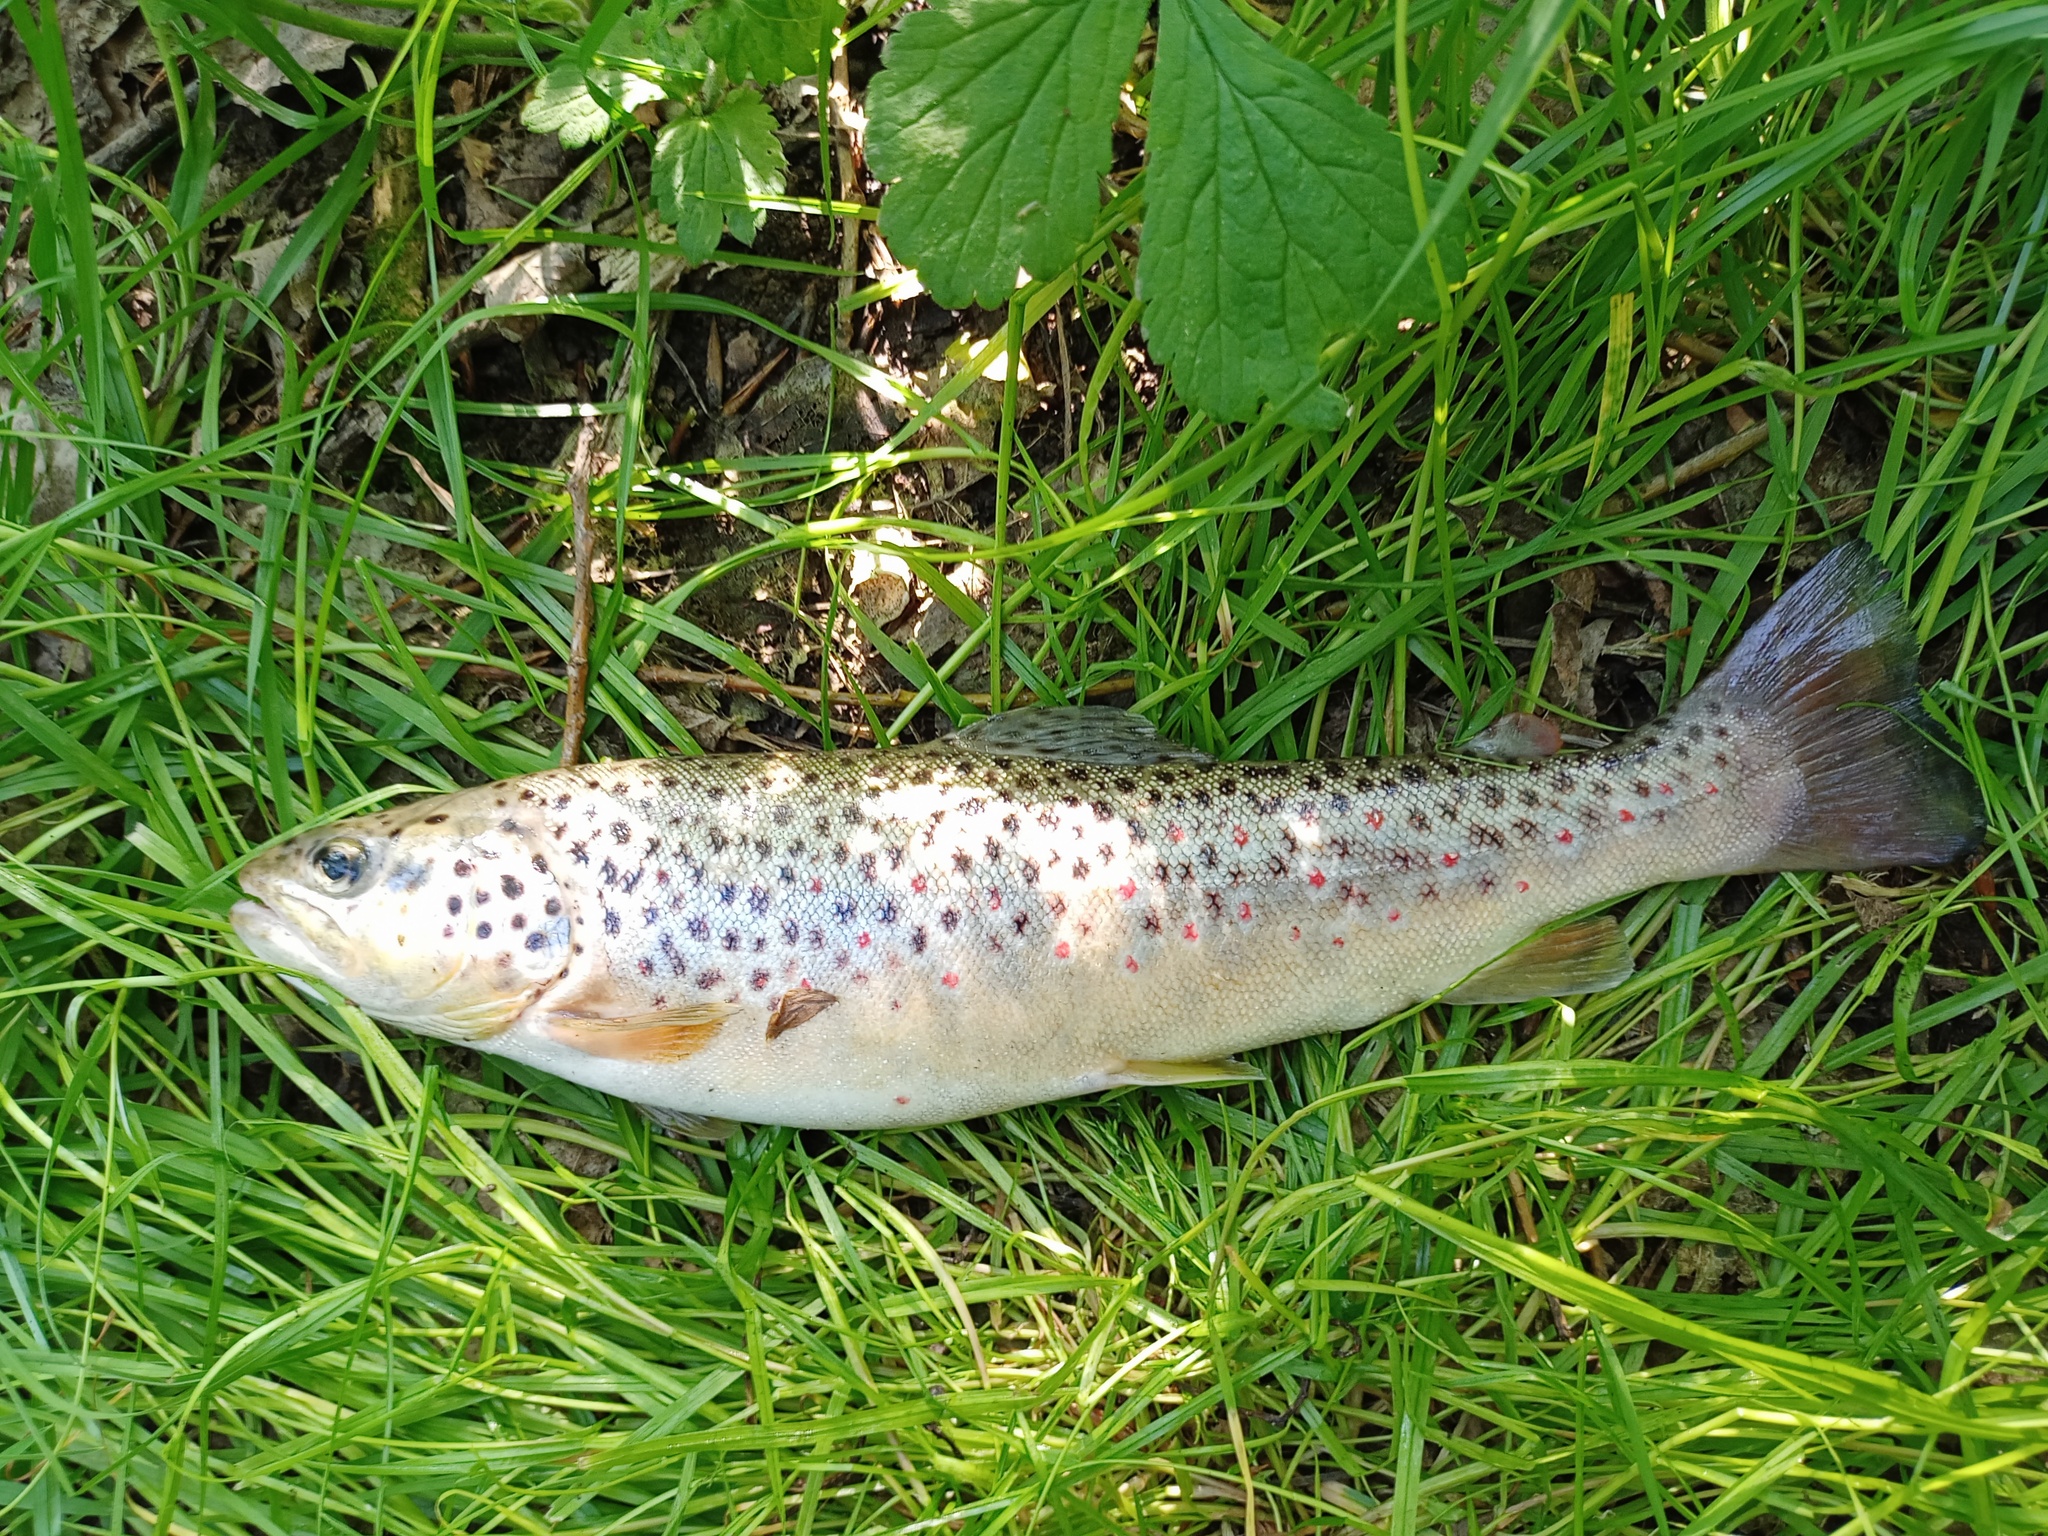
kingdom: Animalia
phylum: Chordata
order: Salmoniformes
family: Salmonidae
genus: Salmo
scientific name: Salmo trutta
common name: Brown trout
